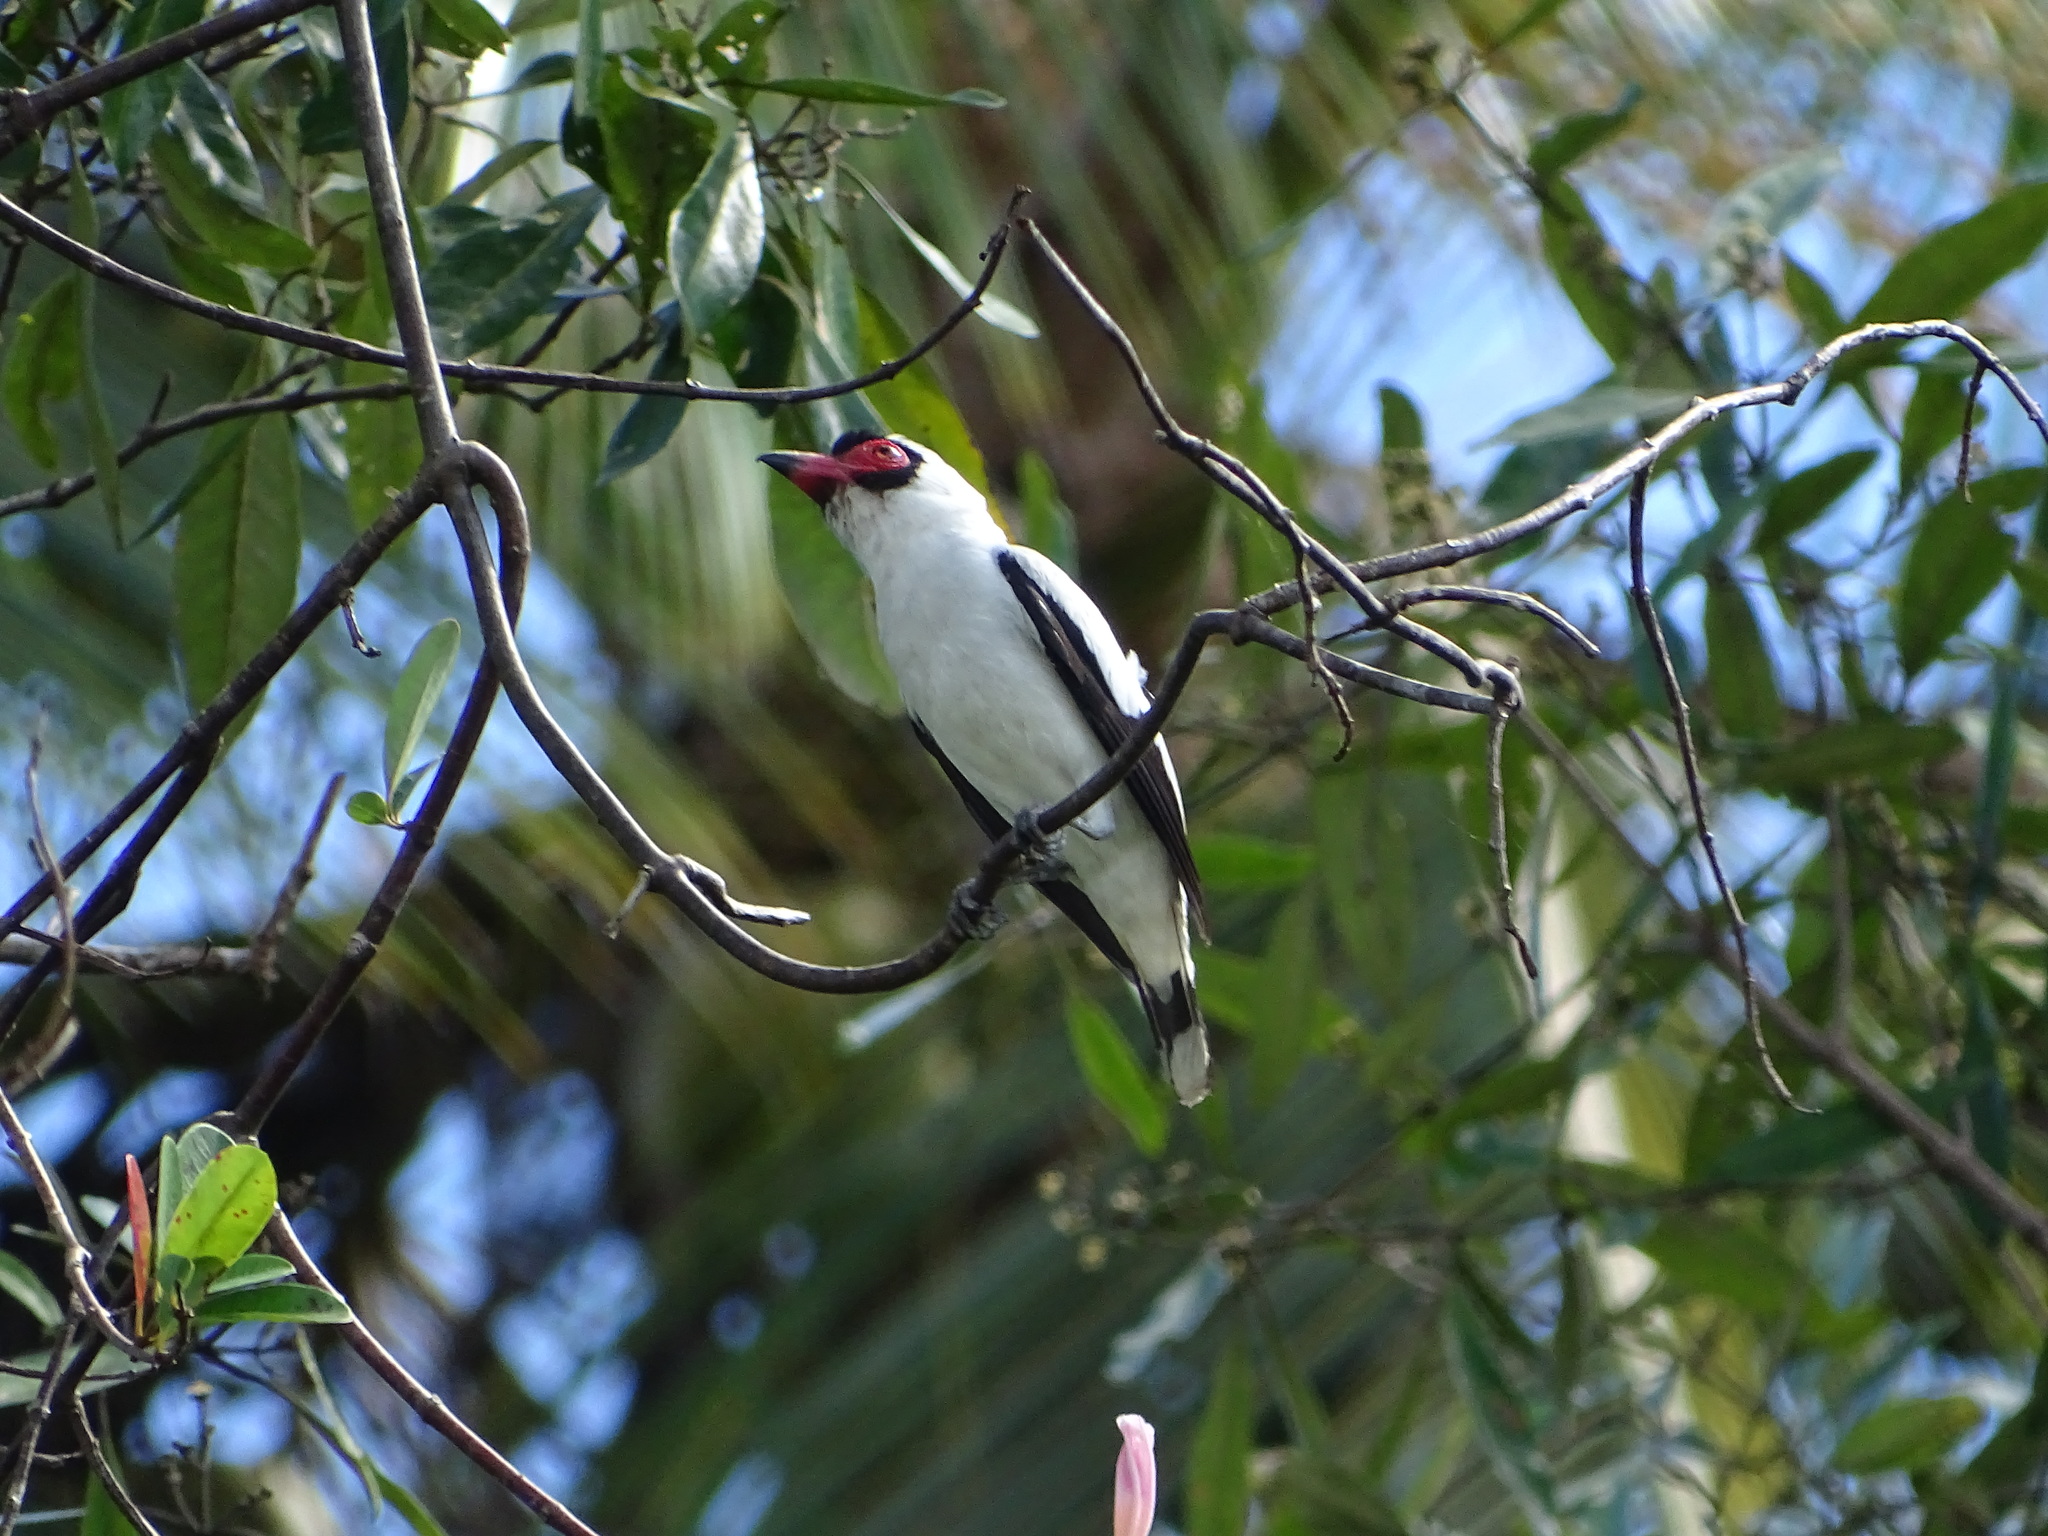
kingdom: Animalia
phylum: Chordata
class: Aves
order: Passeriformes
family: Cotingidae
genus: Tityra
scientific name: Tityra semifasciata
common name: Masked tityra
